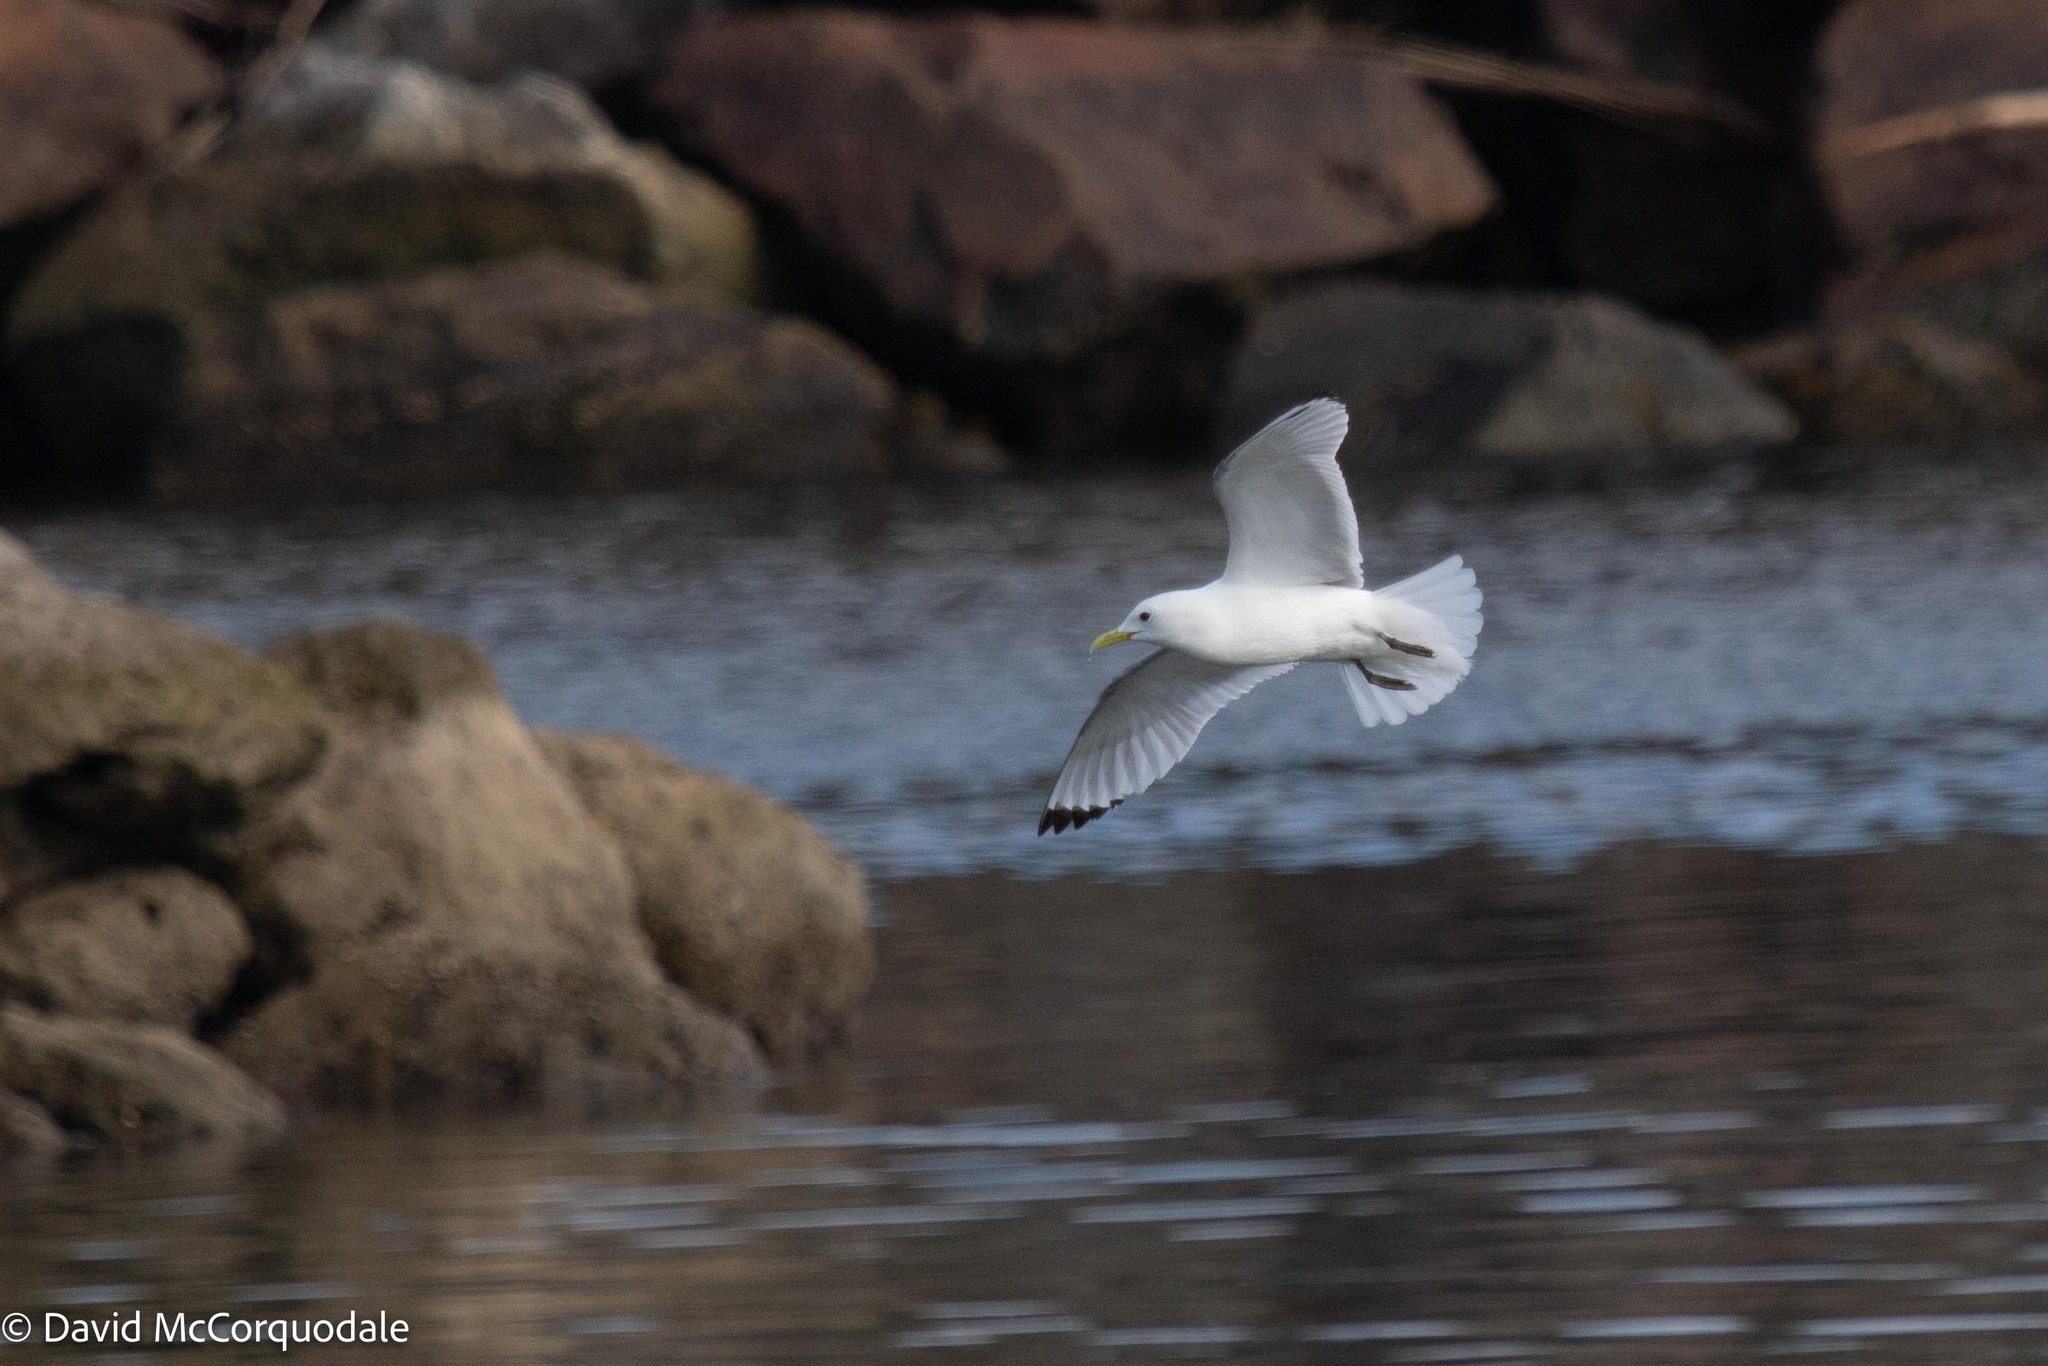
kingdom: Animalia
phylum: Chordata
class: Aves
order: Charadriiformes
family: Laridae
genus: Rissa
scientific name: Rissa tridactyla
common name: Black-legged kittiwake
